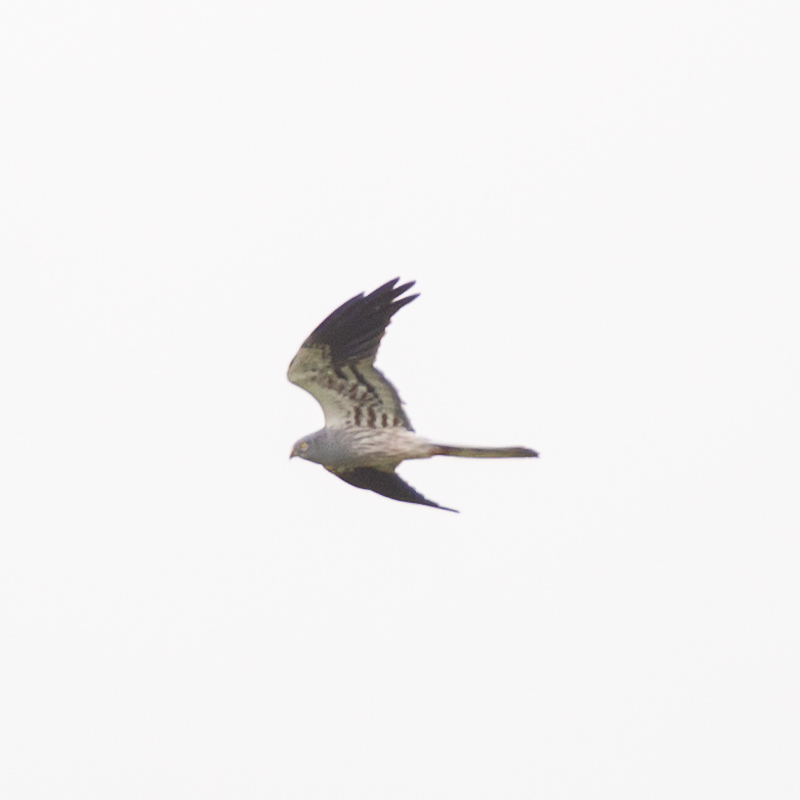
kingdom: Animalia
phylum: Chordata
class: Aves
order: Accipitriformes
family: Accipitridae
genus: Circus
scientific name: Circus pygargus
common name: Montagu's harrier
